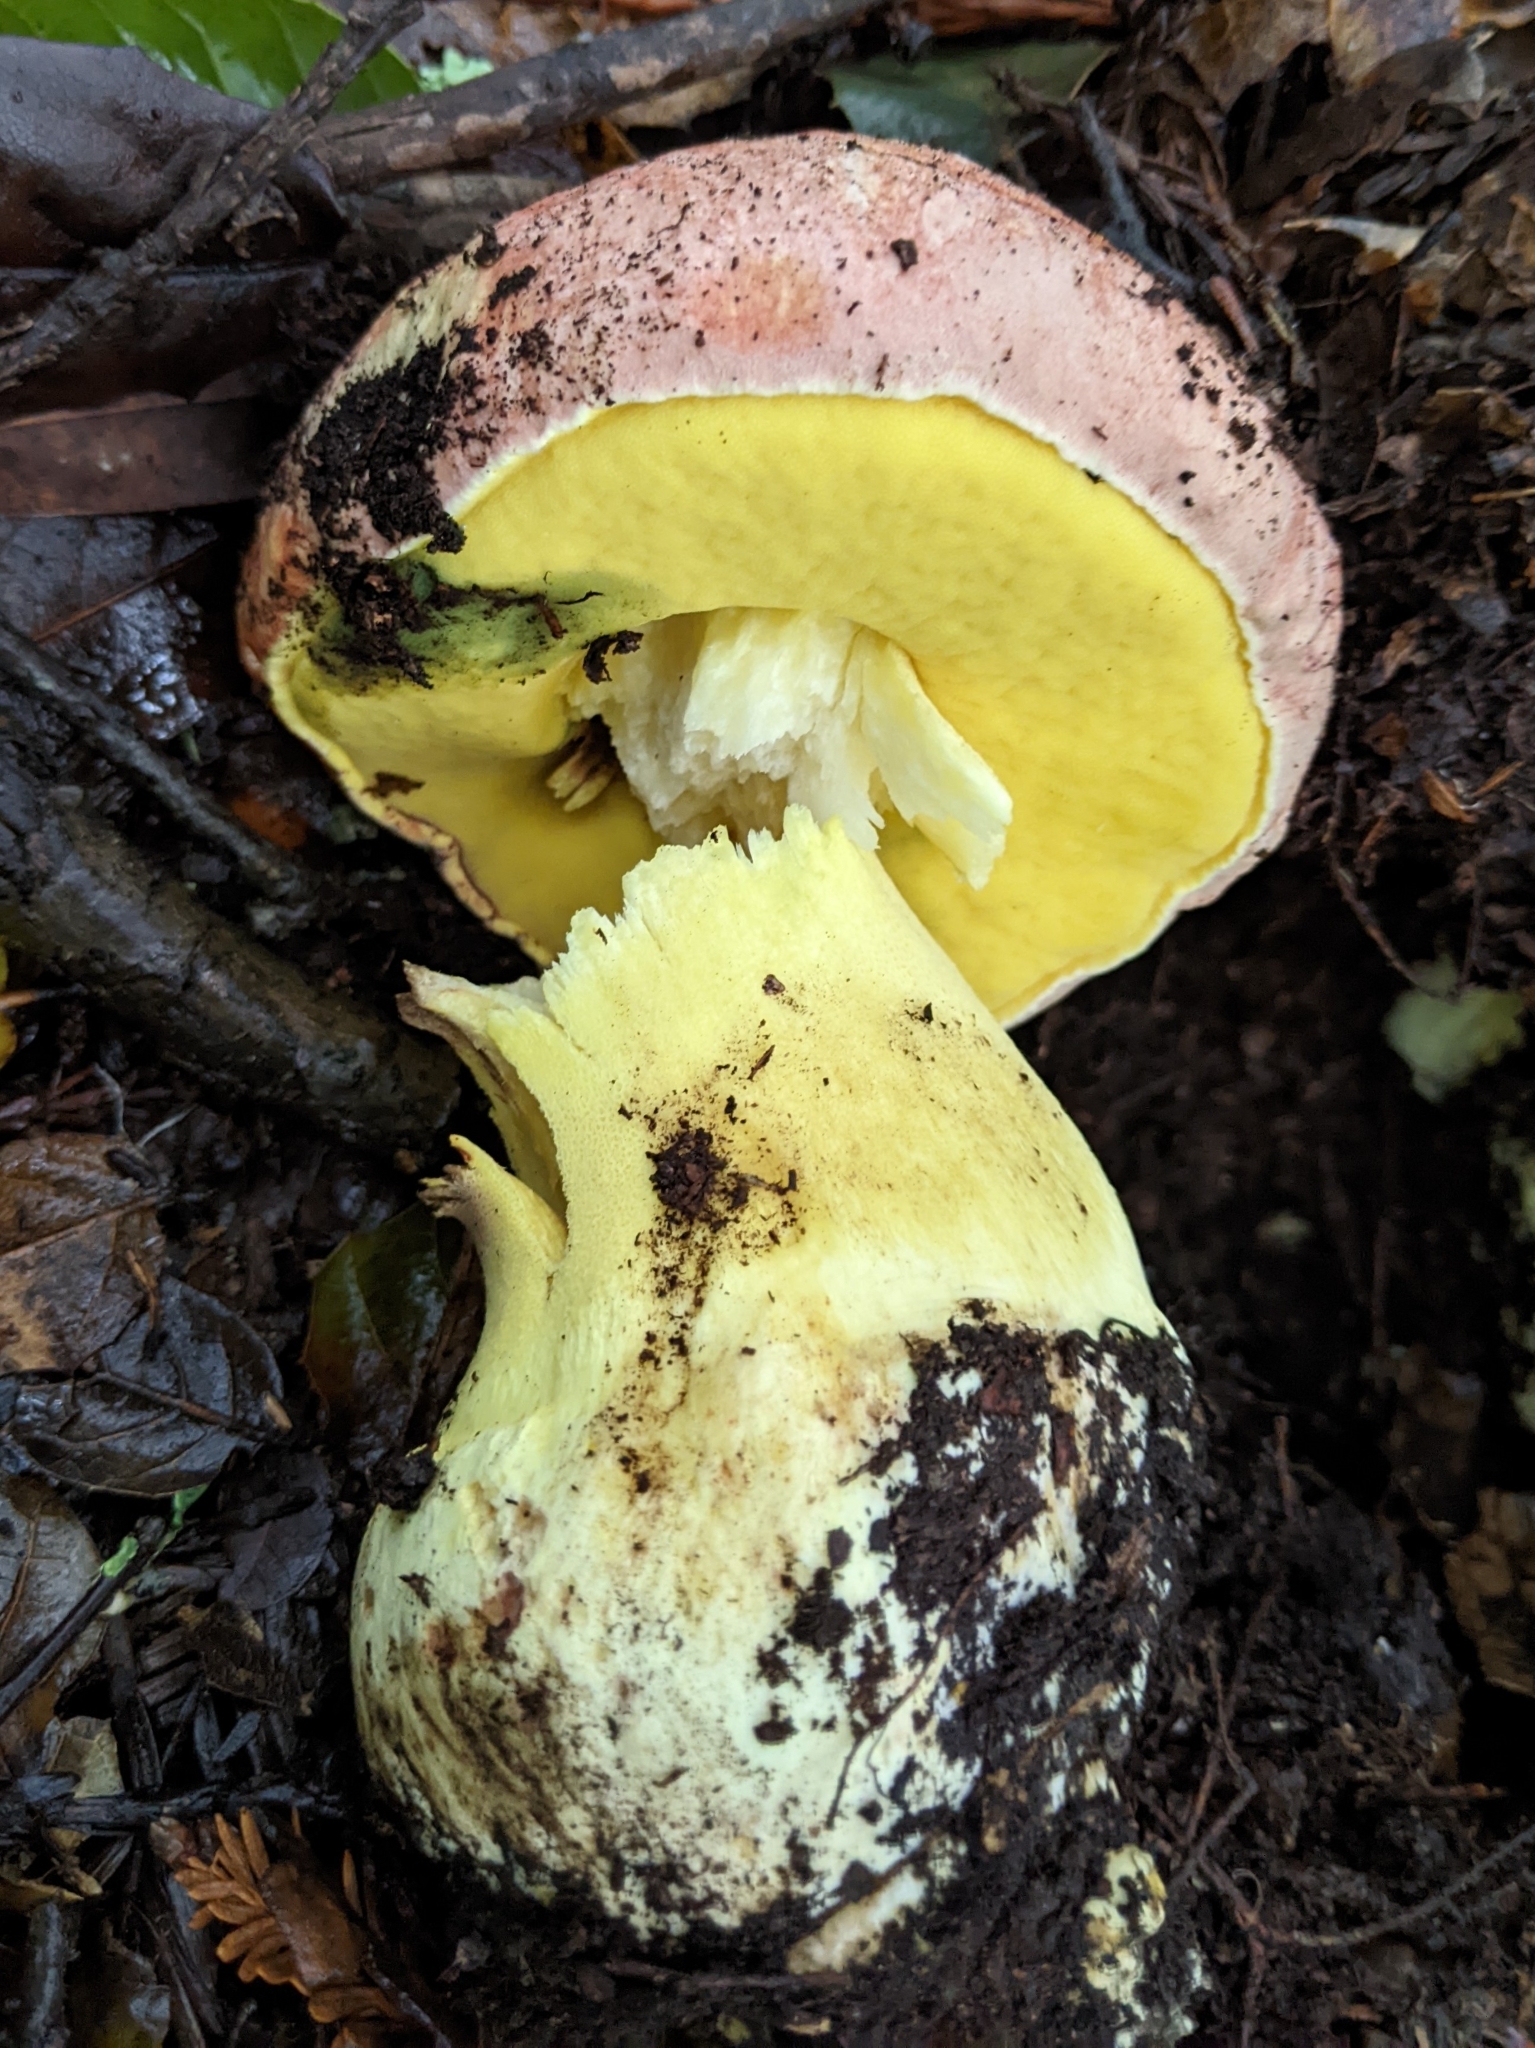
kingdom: Fungi
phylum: Basidiomycota
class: Agaricomycetes
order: Boletales
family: Boletaceae
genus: Butyriboletus
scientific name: Butyriboletus querciregius
